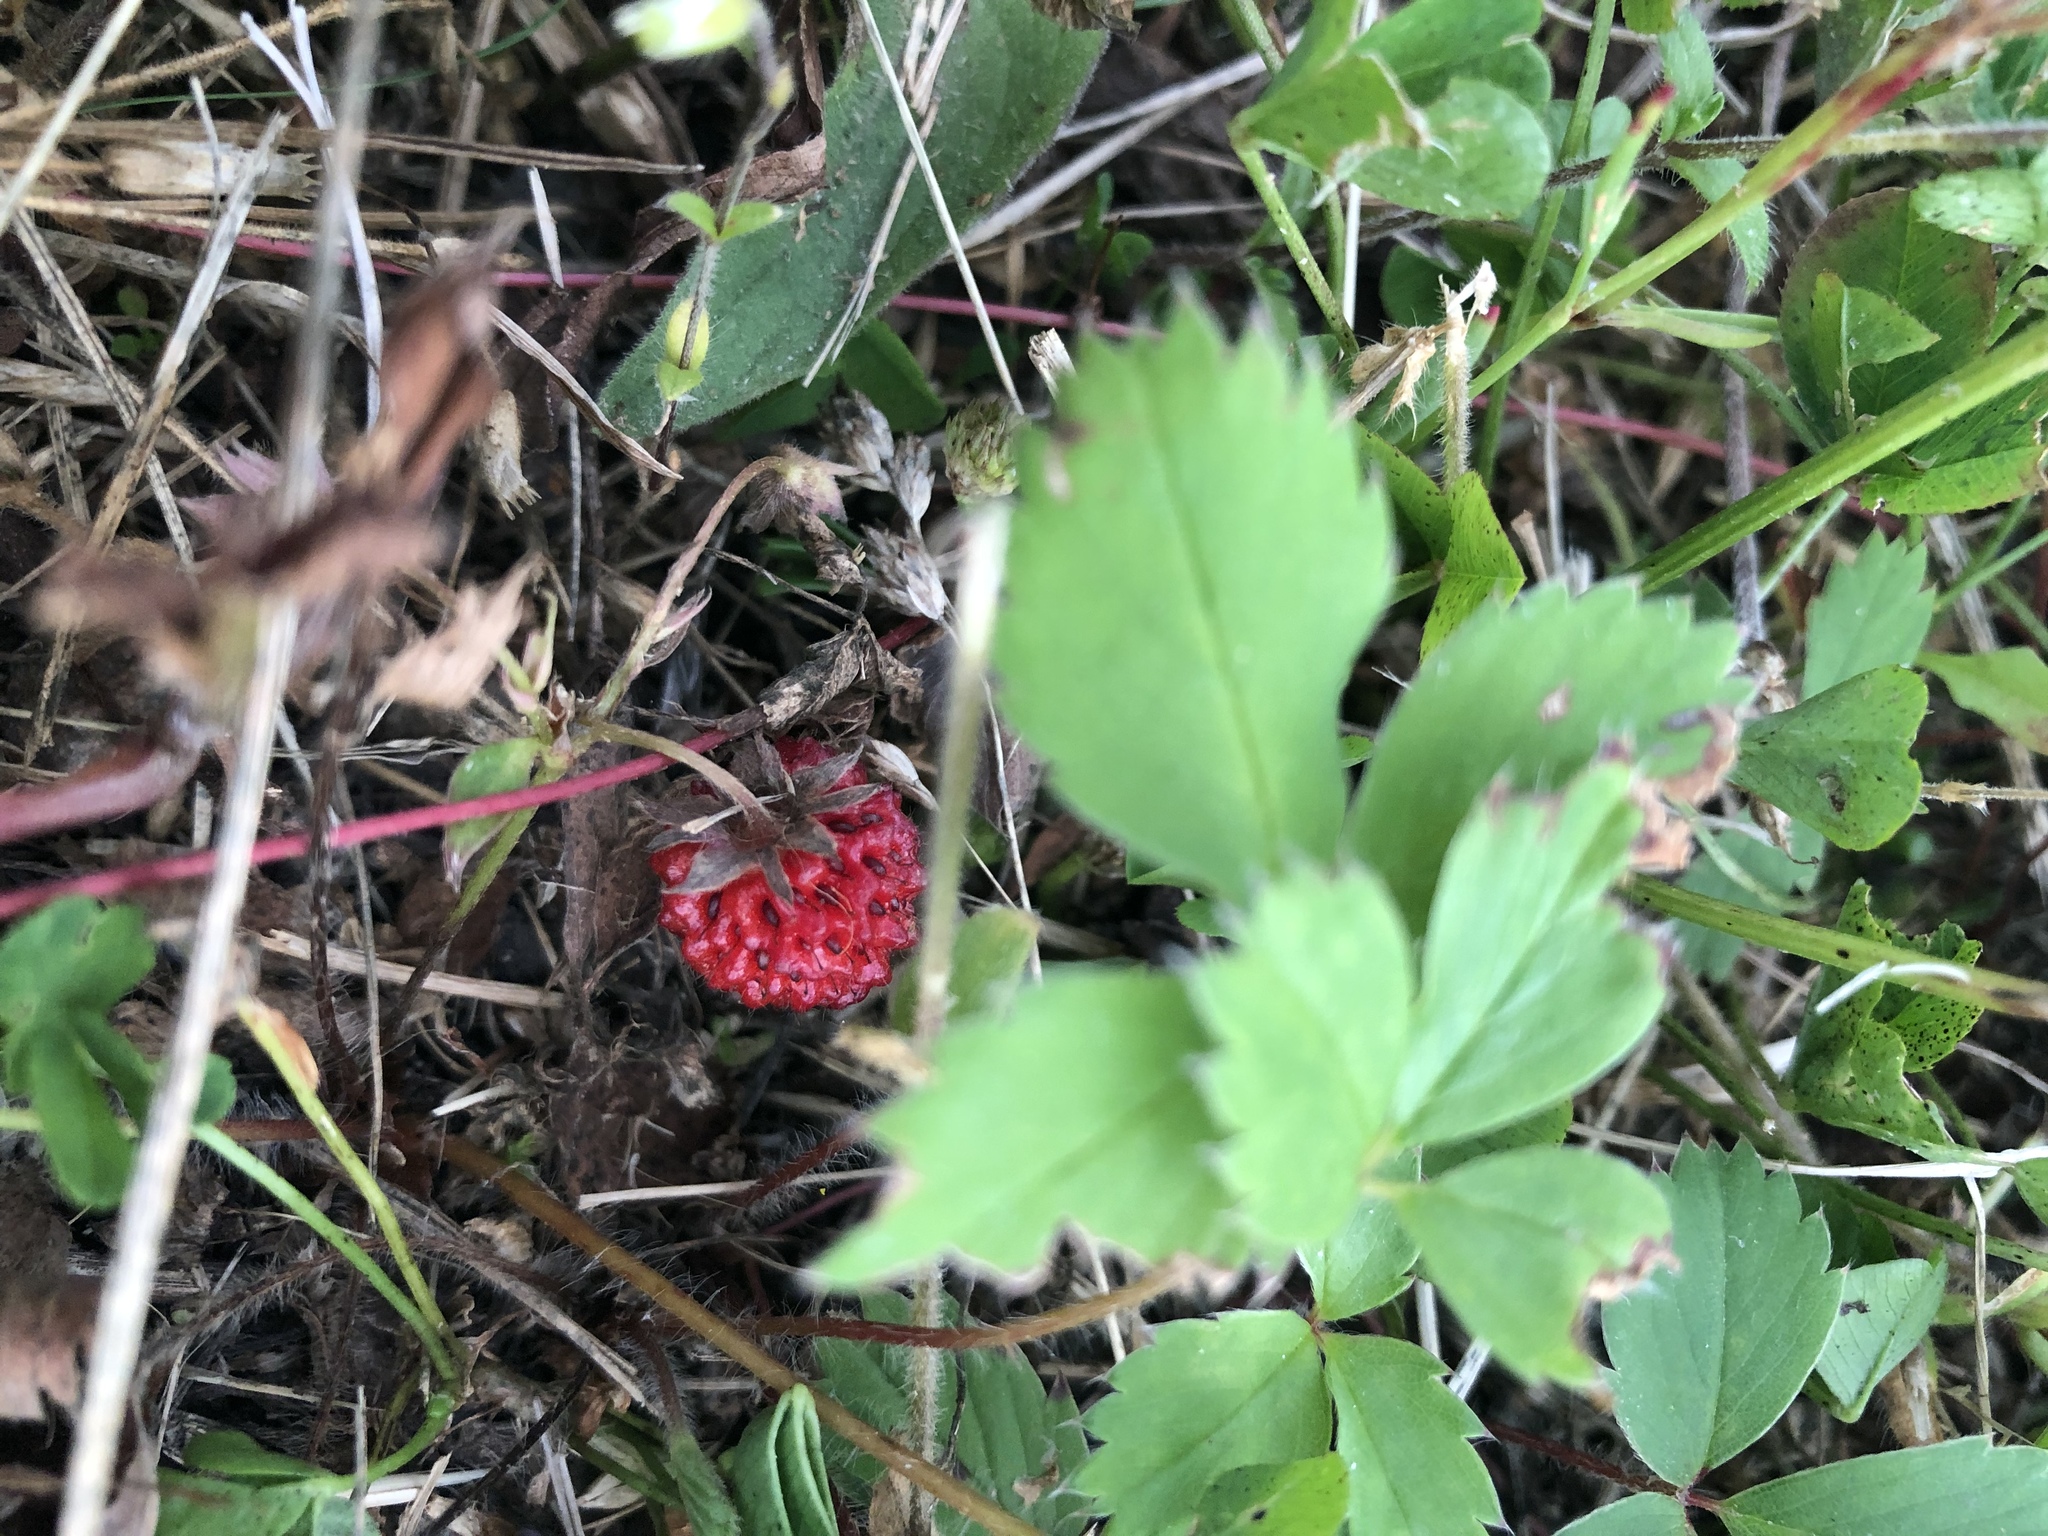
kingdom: Plantae
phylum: Tracheophyta
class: Magnoliopsida
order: Rosales
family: Rosaceae
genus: Fragaria
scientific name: Fragaria virginiana
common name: Thickleaved wild strawberry
